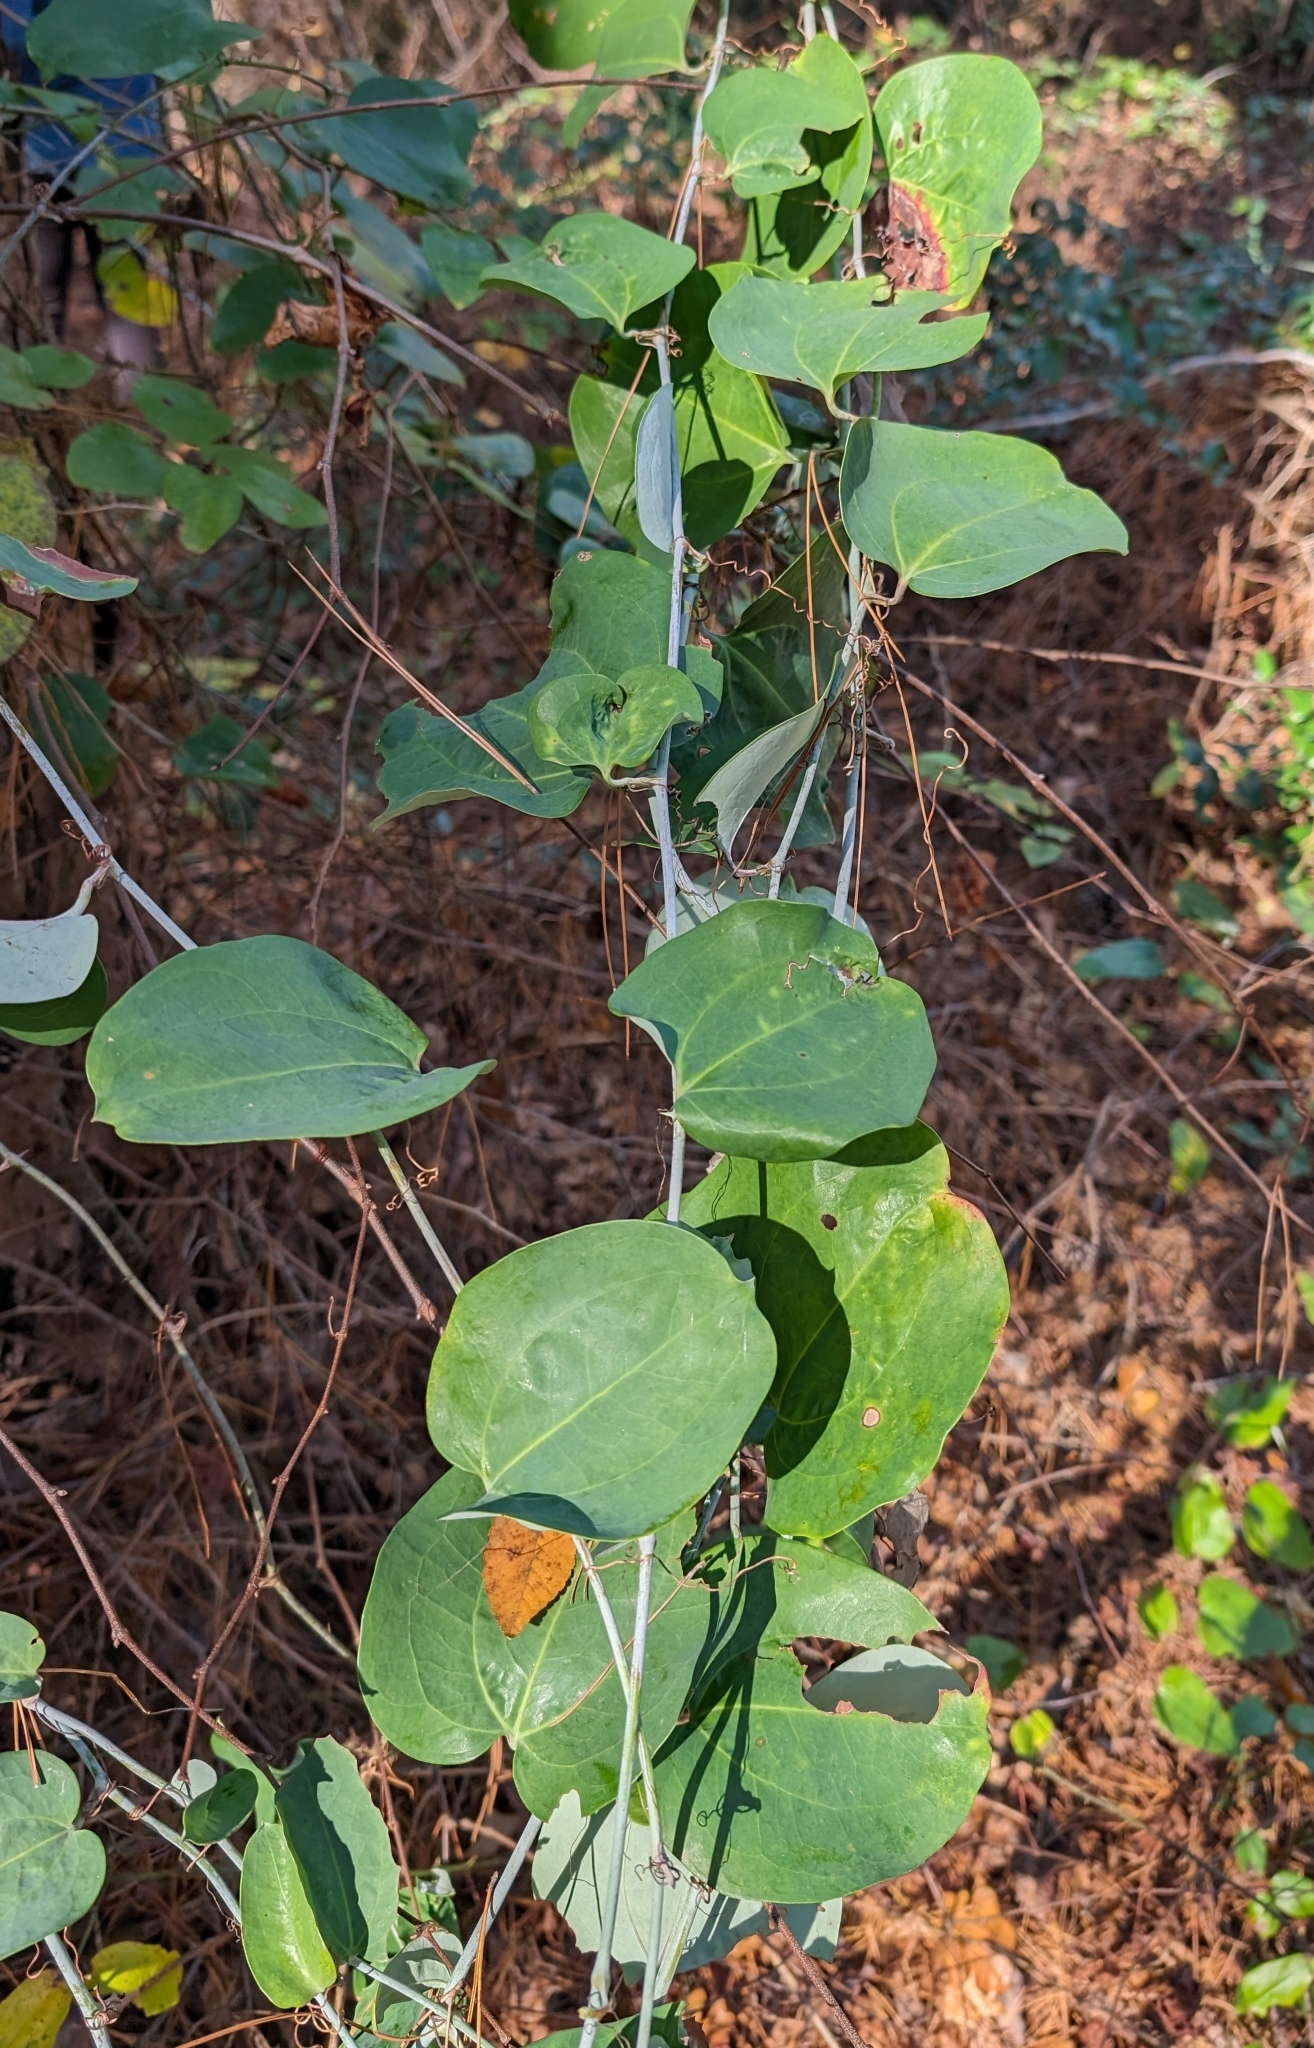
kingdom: Plantae
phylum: Tracheophyta
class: Liliopsida
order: Liliales
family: Smilacaceae
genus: Smilax
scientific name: Smilax glauca
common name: Cat greenbrier
